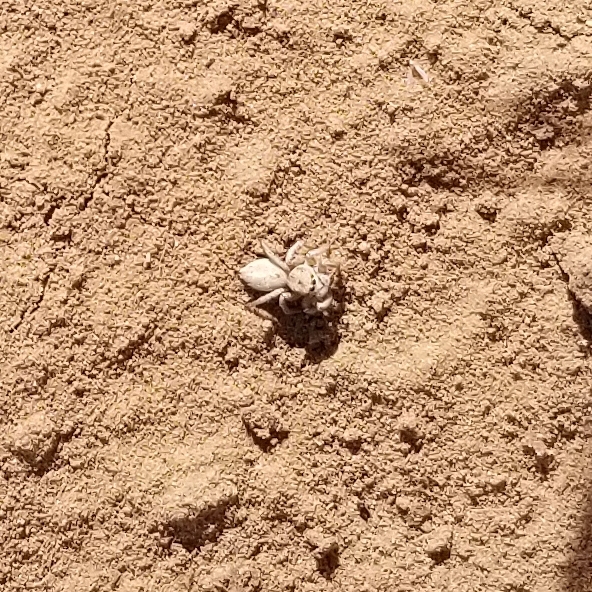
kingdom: Animalia
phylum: Arthropoda
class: Arachnida
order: Araneae
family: Salticidae
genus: Habronattus
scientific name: Habronattus signatus
